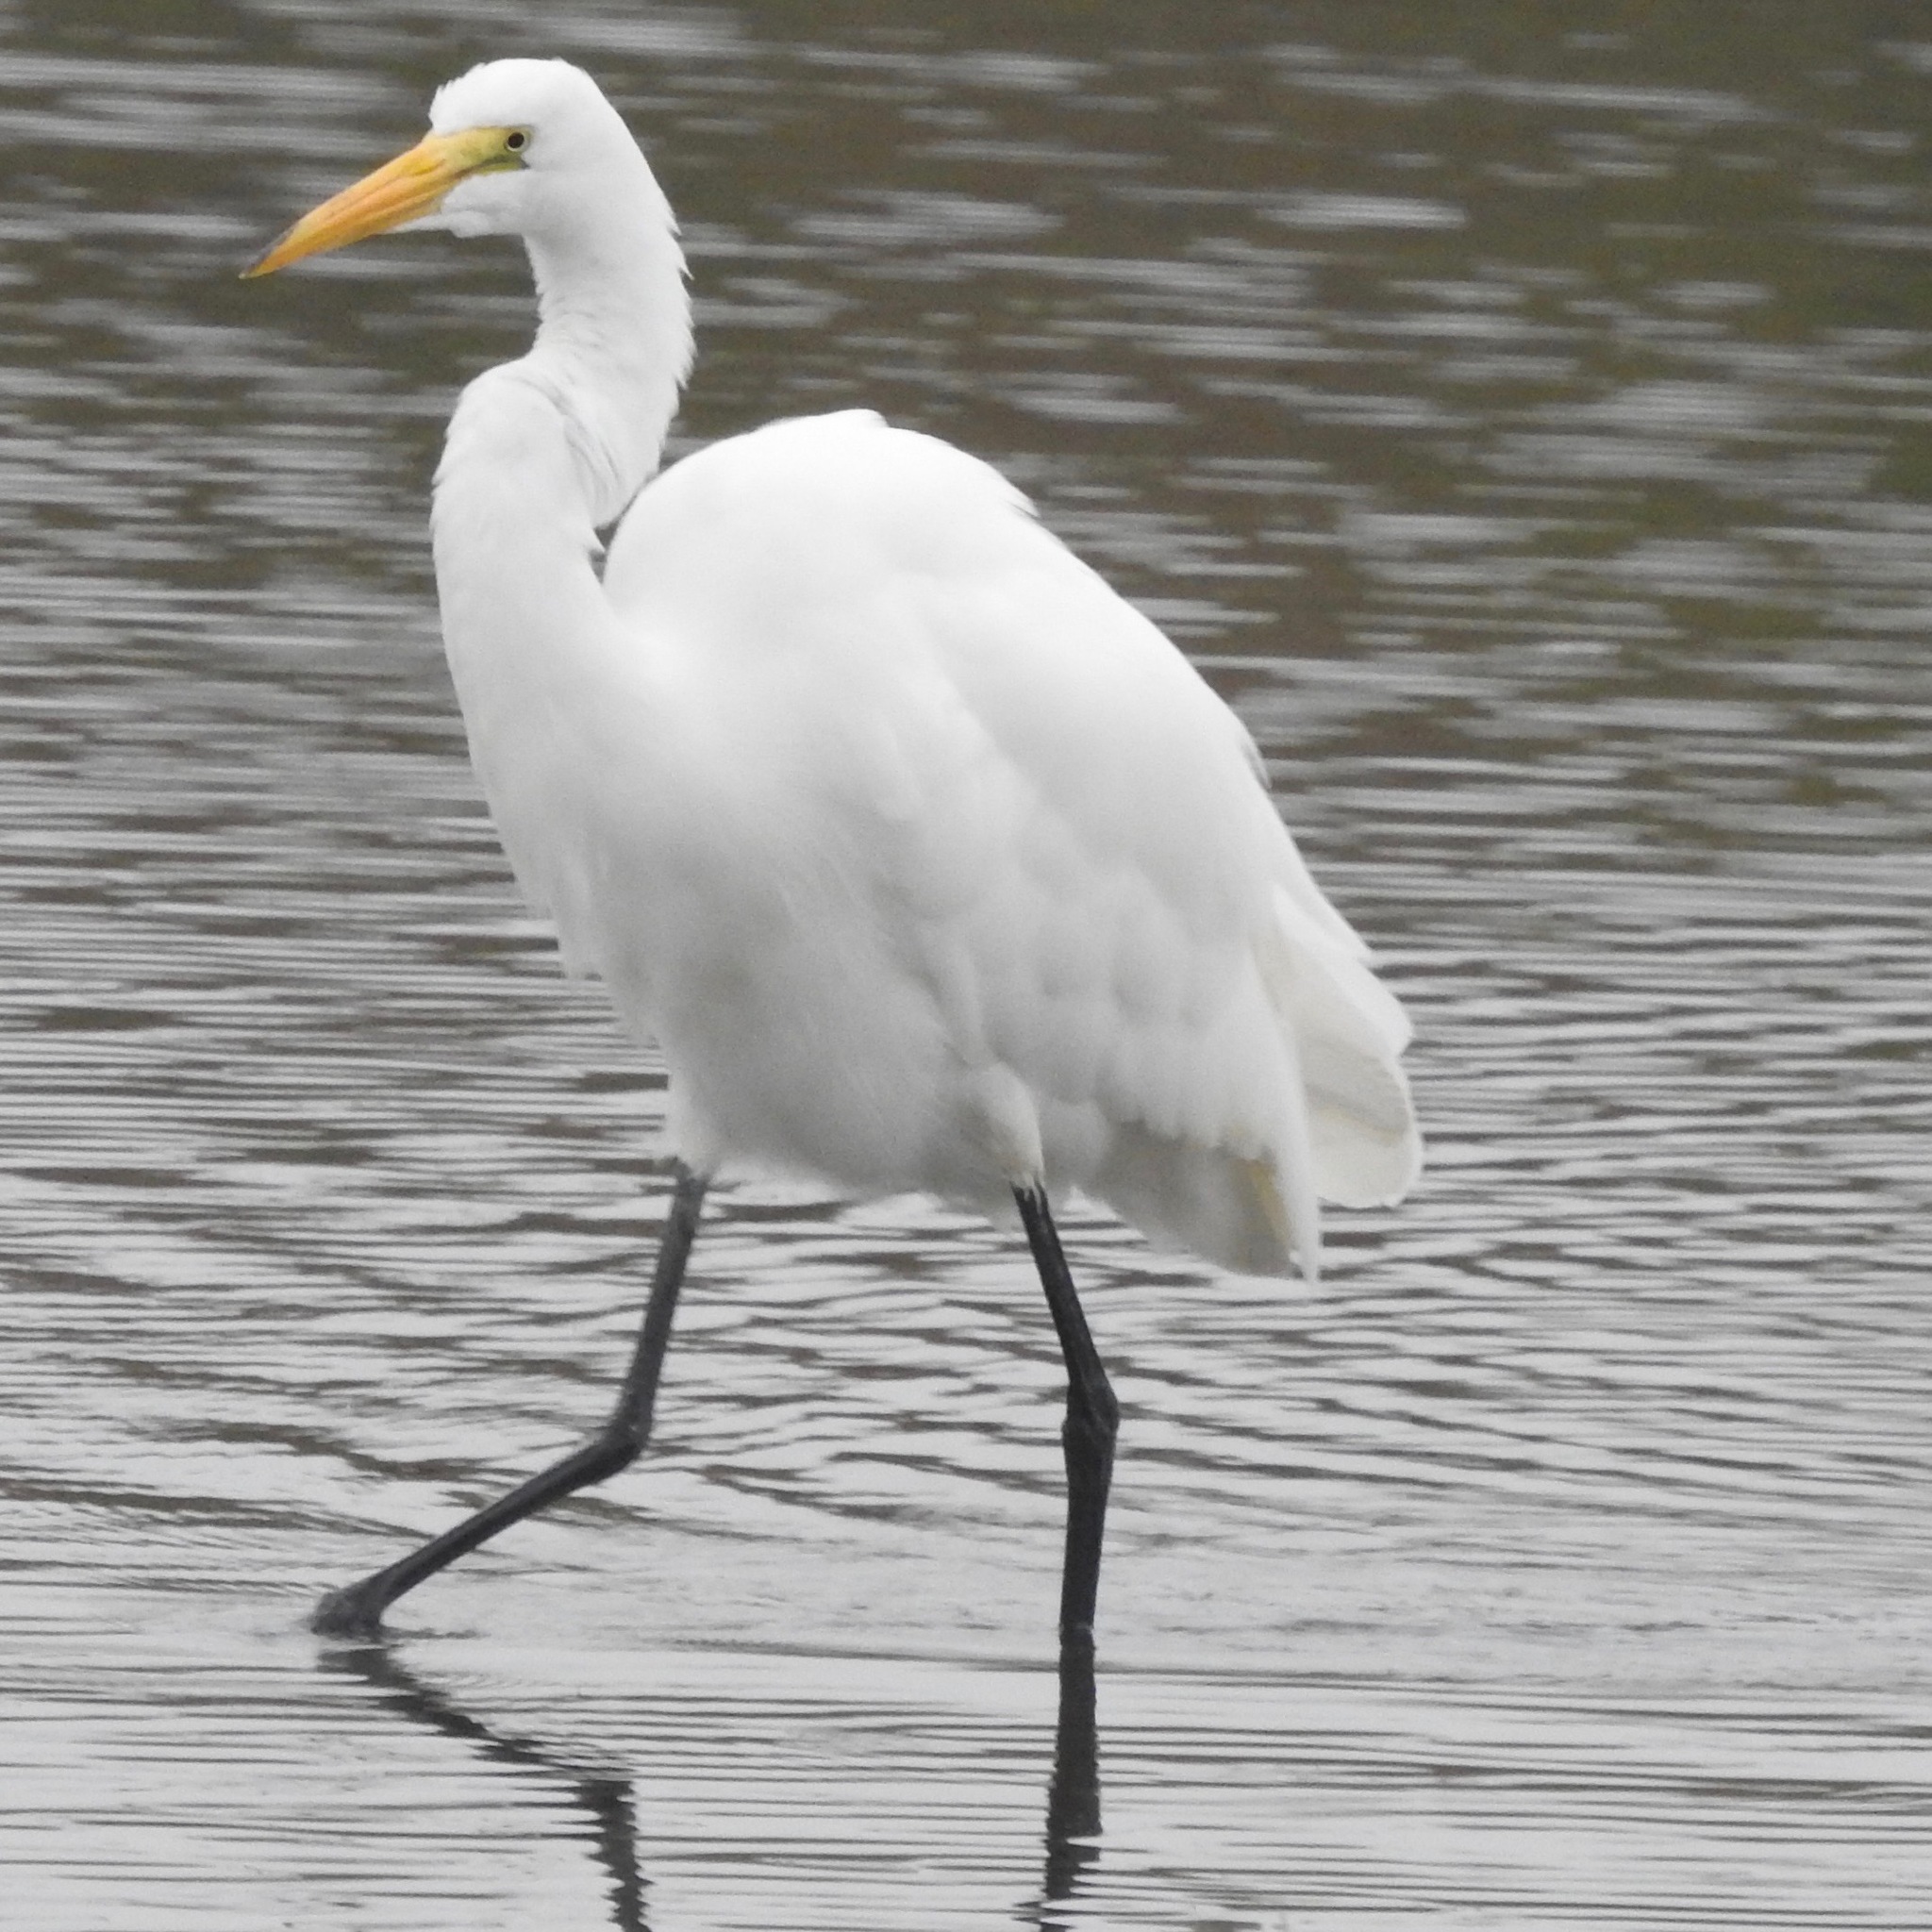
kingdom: Animalia
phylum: Chordata
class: Aves
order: Pelecaniformes
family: Ardeidae
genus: Ardea
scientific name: Ardea alba
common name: Great egret
